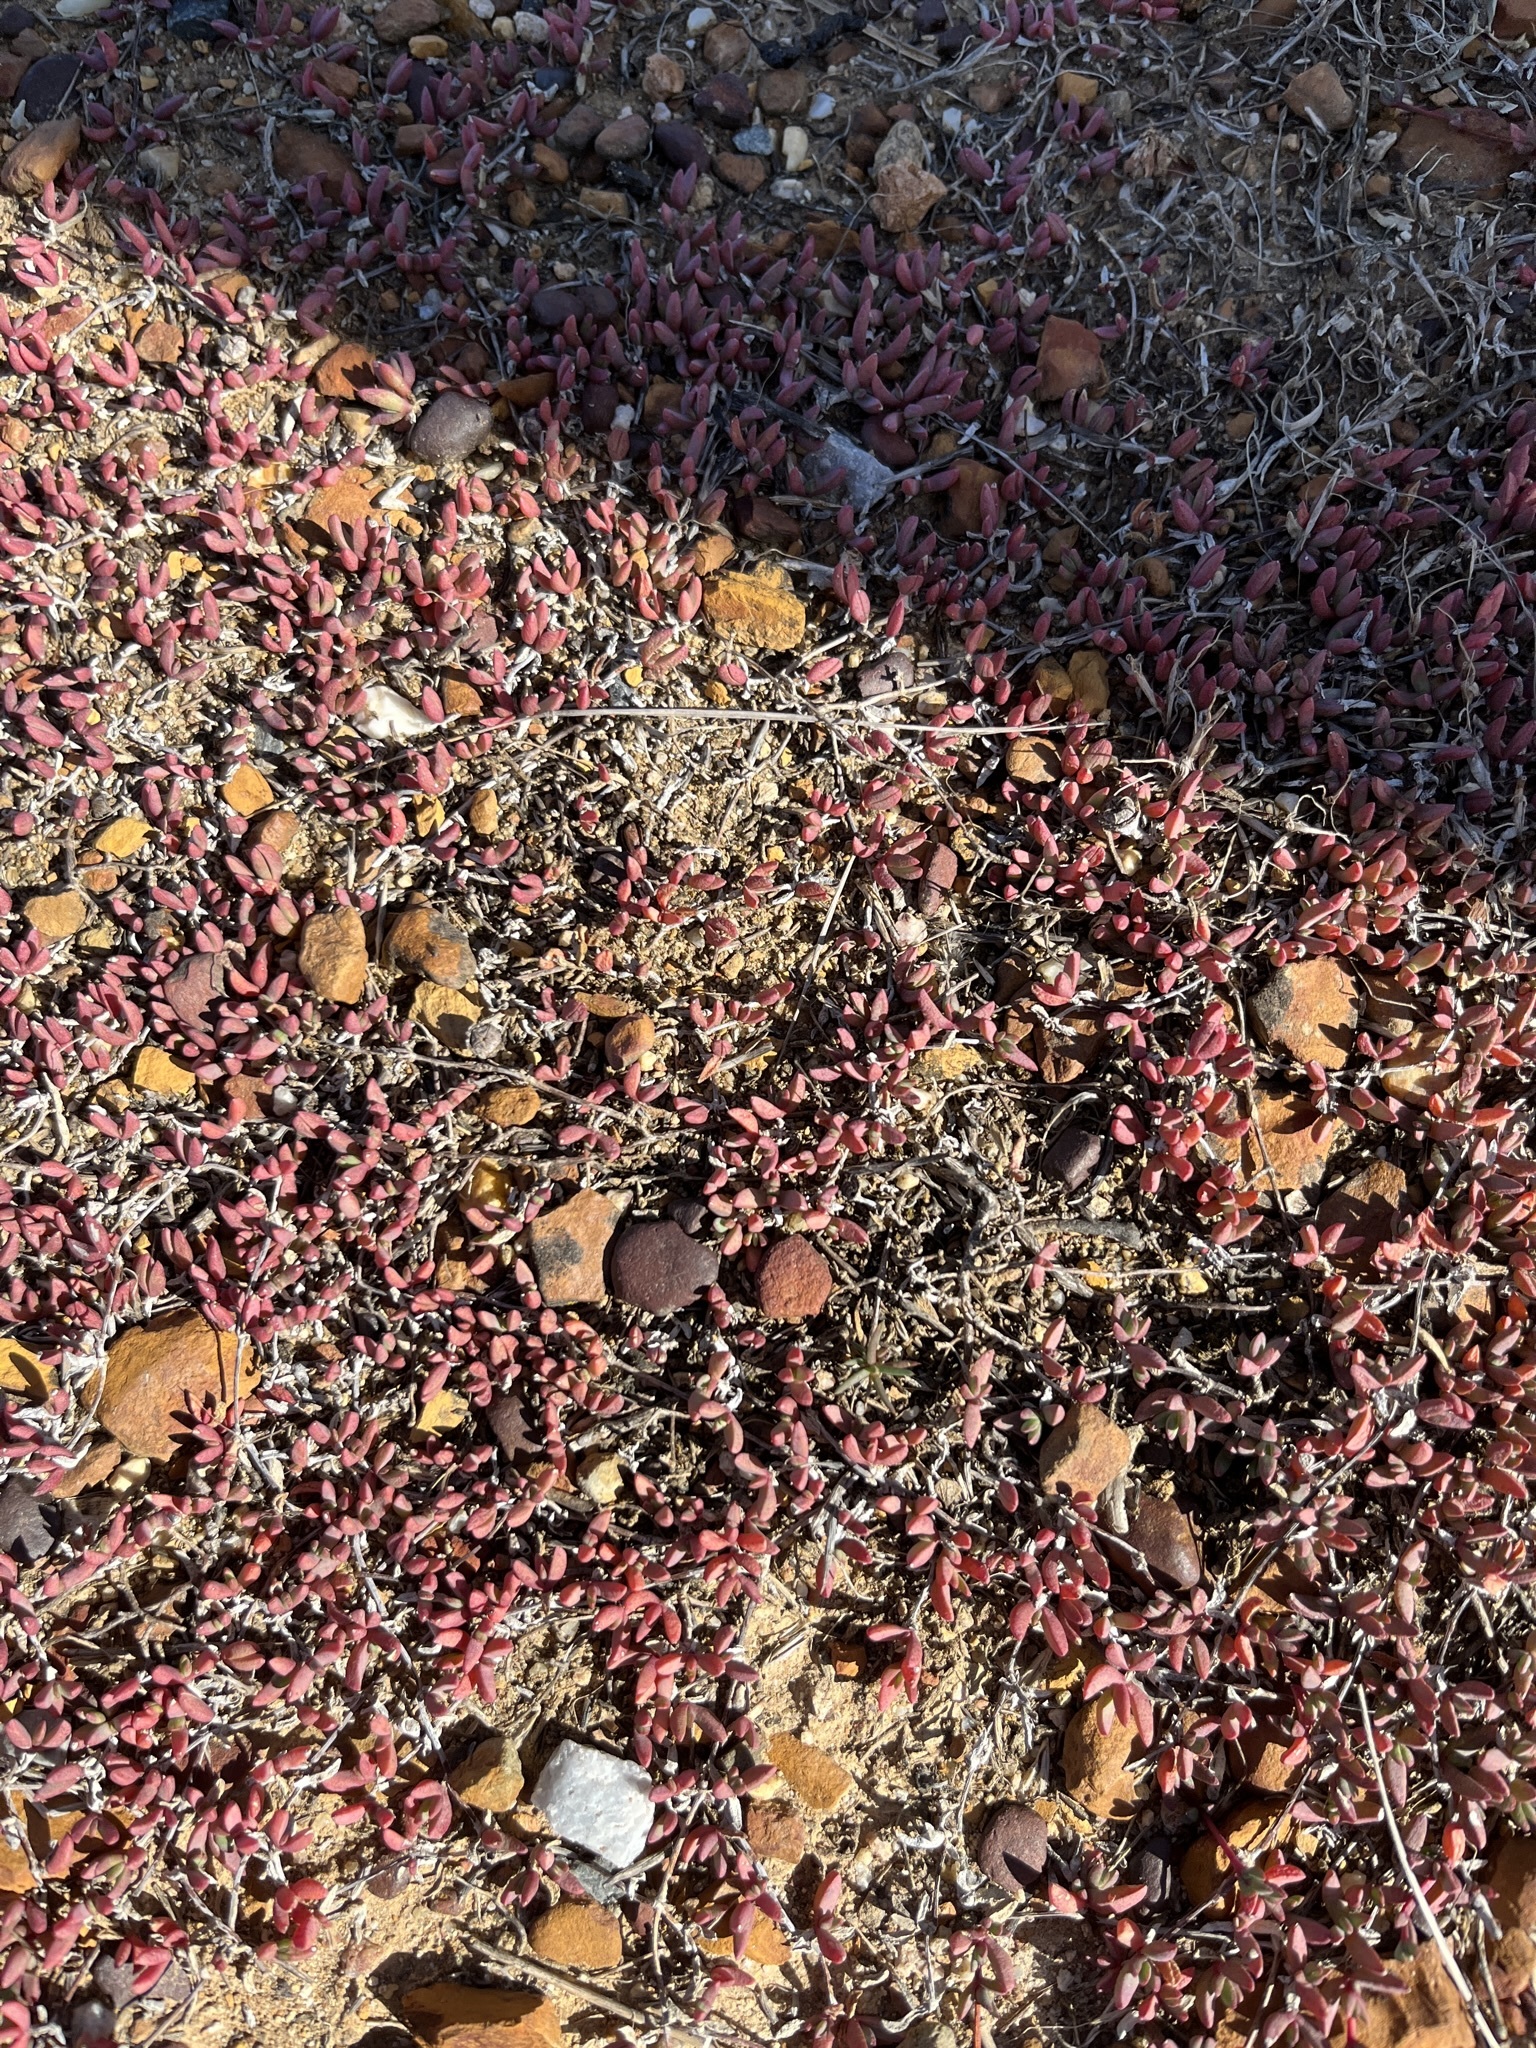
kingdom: Plantae
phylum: Tracheophyta
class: Magnoliopsida
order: Caryophyllales
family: Aizoaceae
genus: Lampranthus
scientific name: Lampranthus debilis
